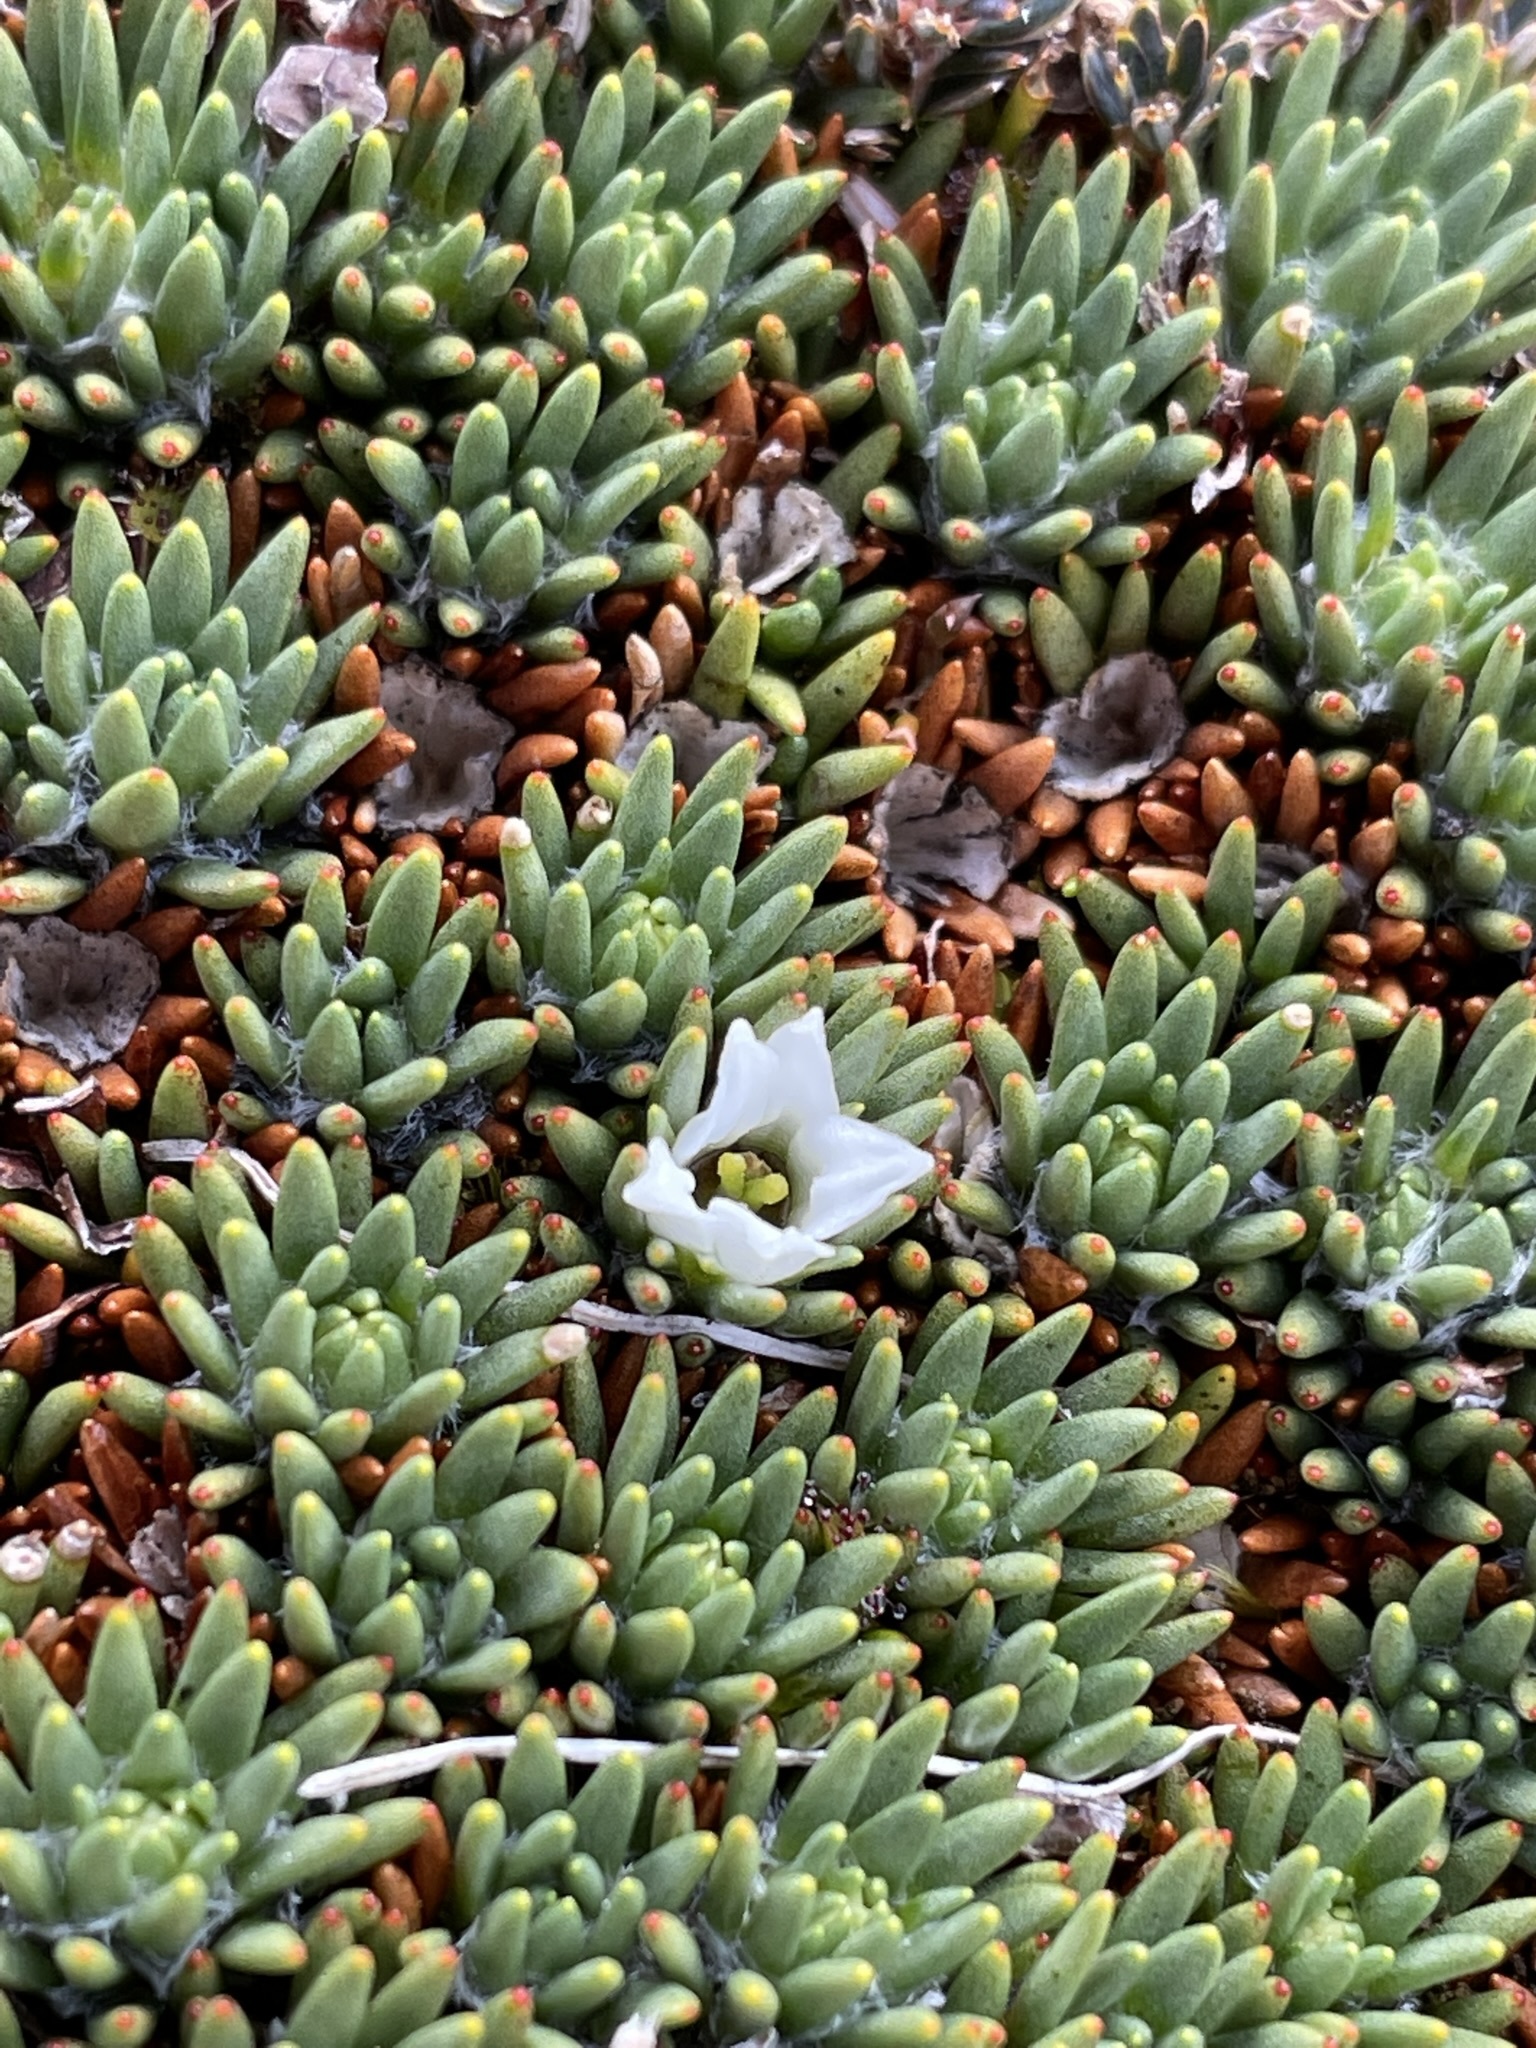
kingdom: Plantae
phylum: Tracheophyta
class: Magnoliopsida
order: Asterales
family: Stylidiaceae
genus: Donatia
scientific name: Donatia novae-zelandiae
